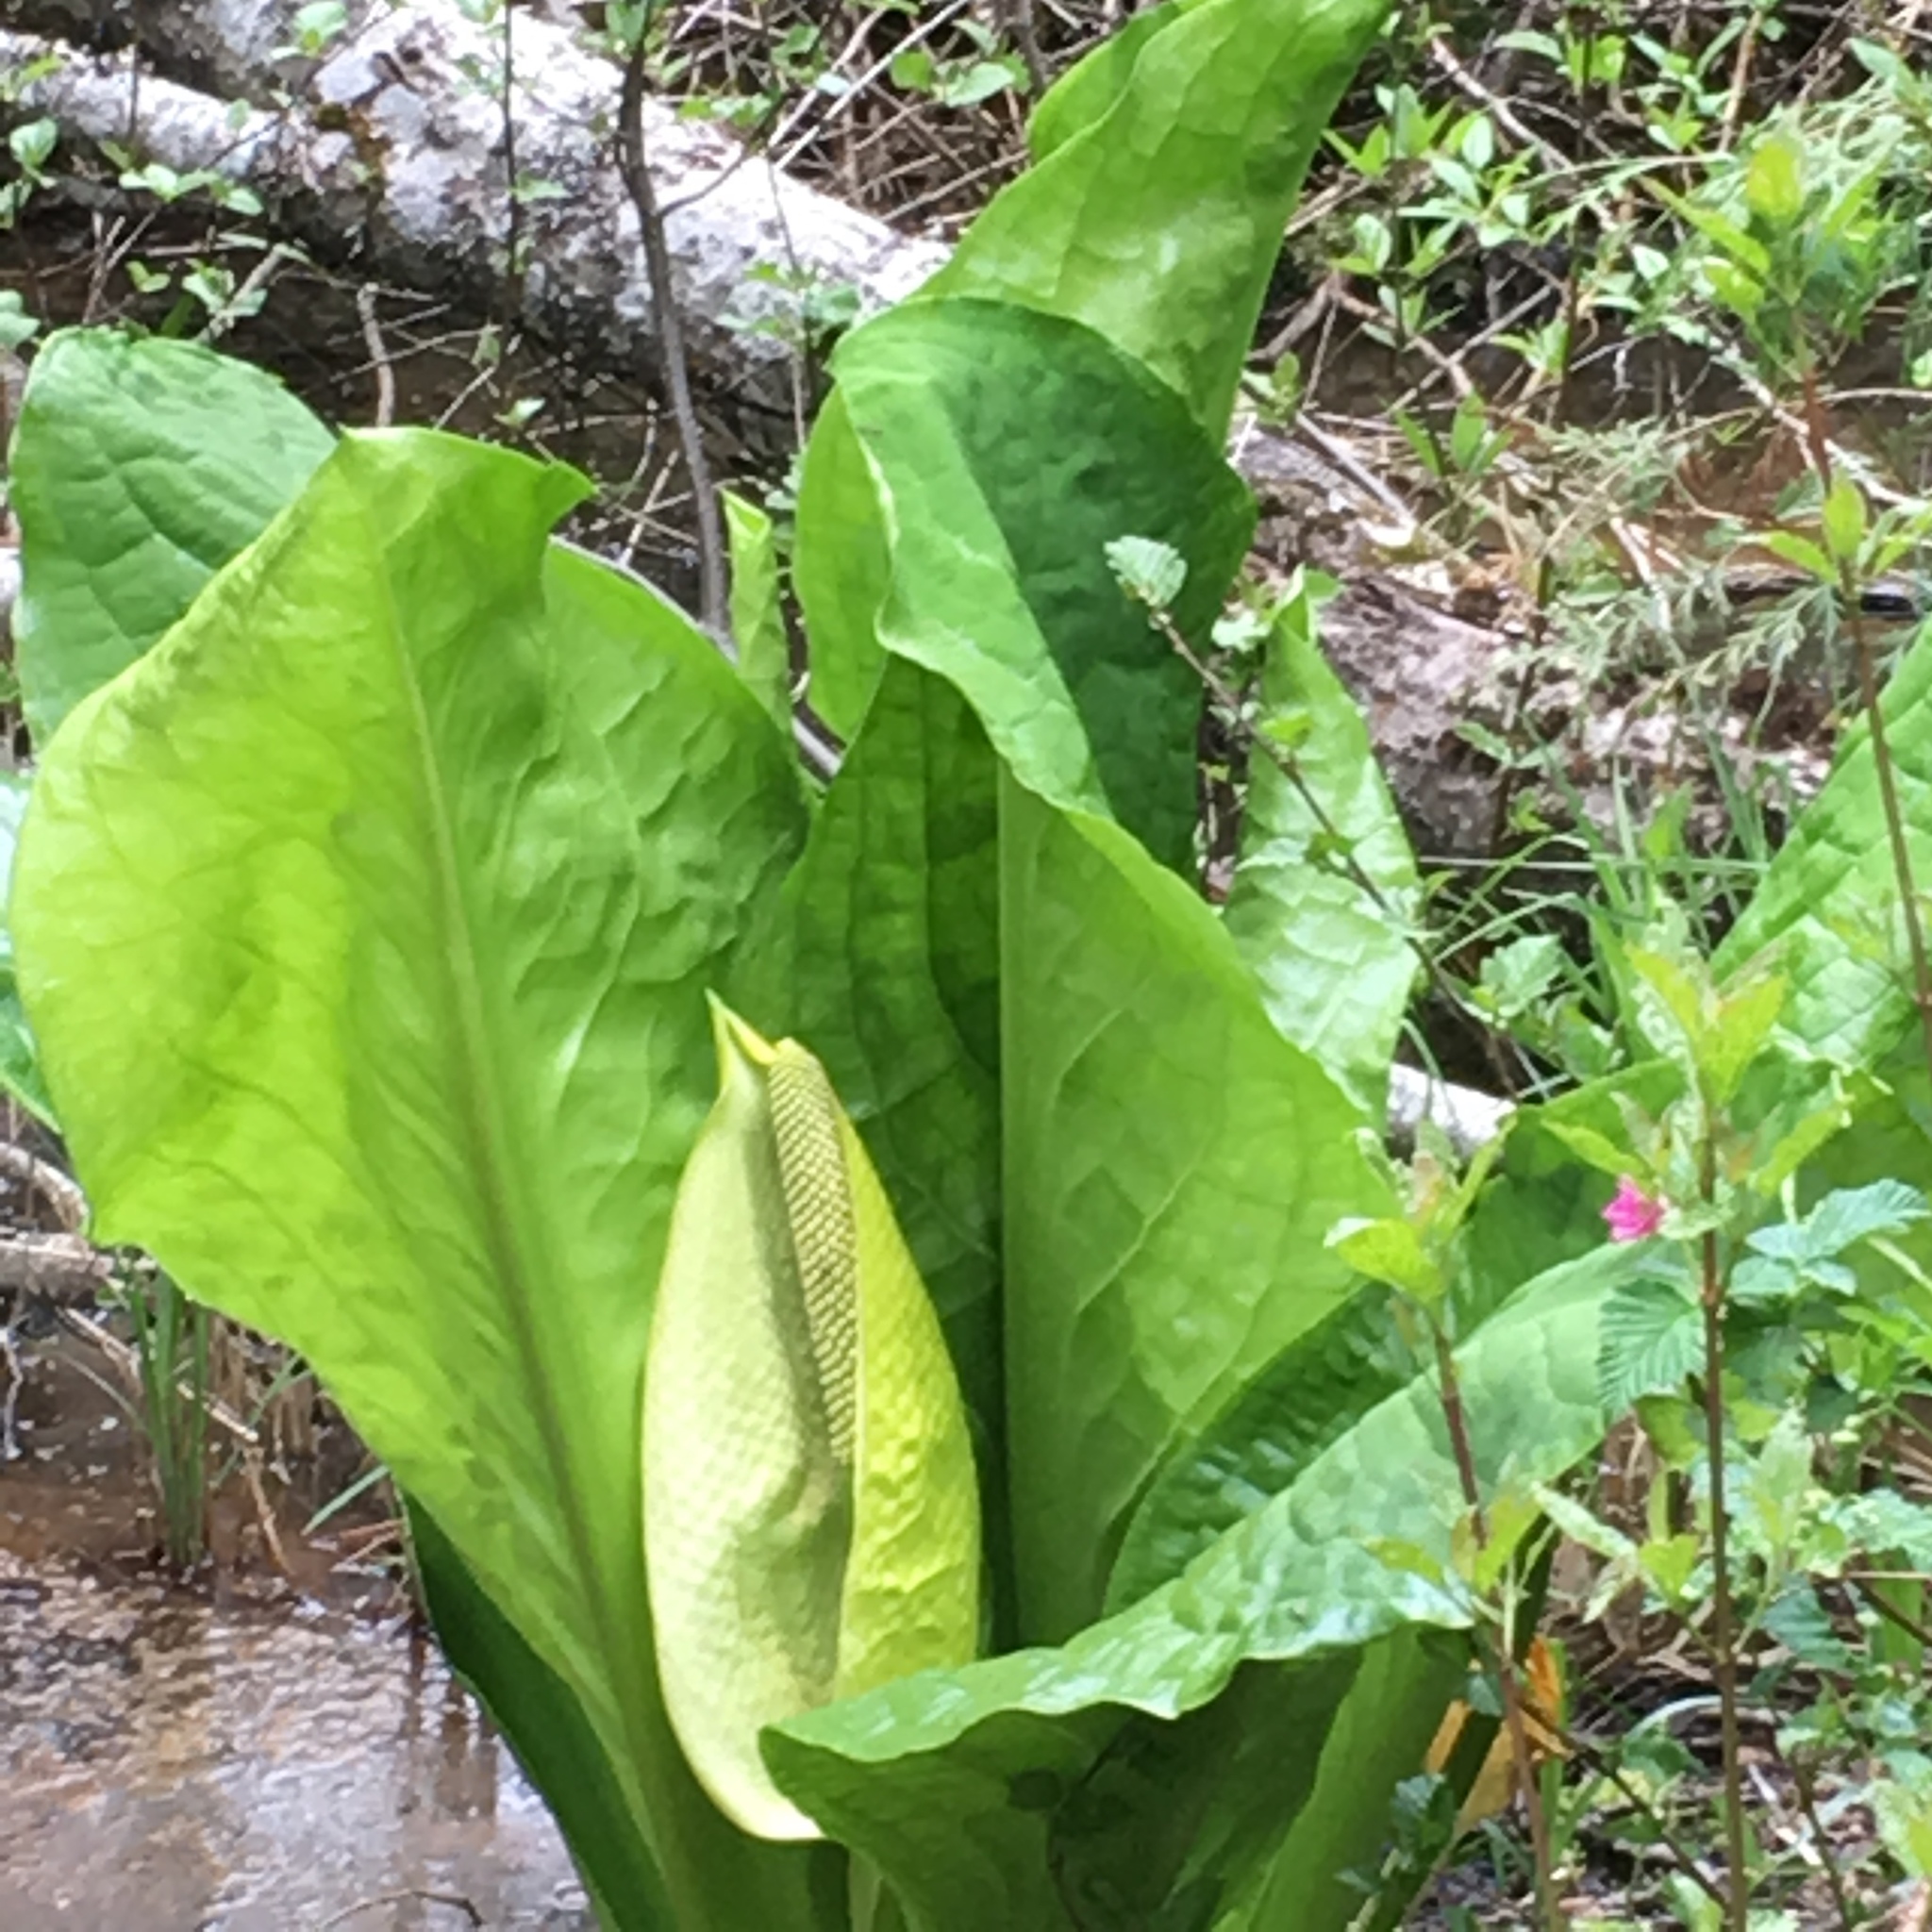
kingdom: Plantae
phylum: Tracheophyta
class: Liliopsida
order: Alismatales
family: Araceae
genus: Lysichiton
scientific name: Lysichiton americanus
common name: American skunk cabbage
